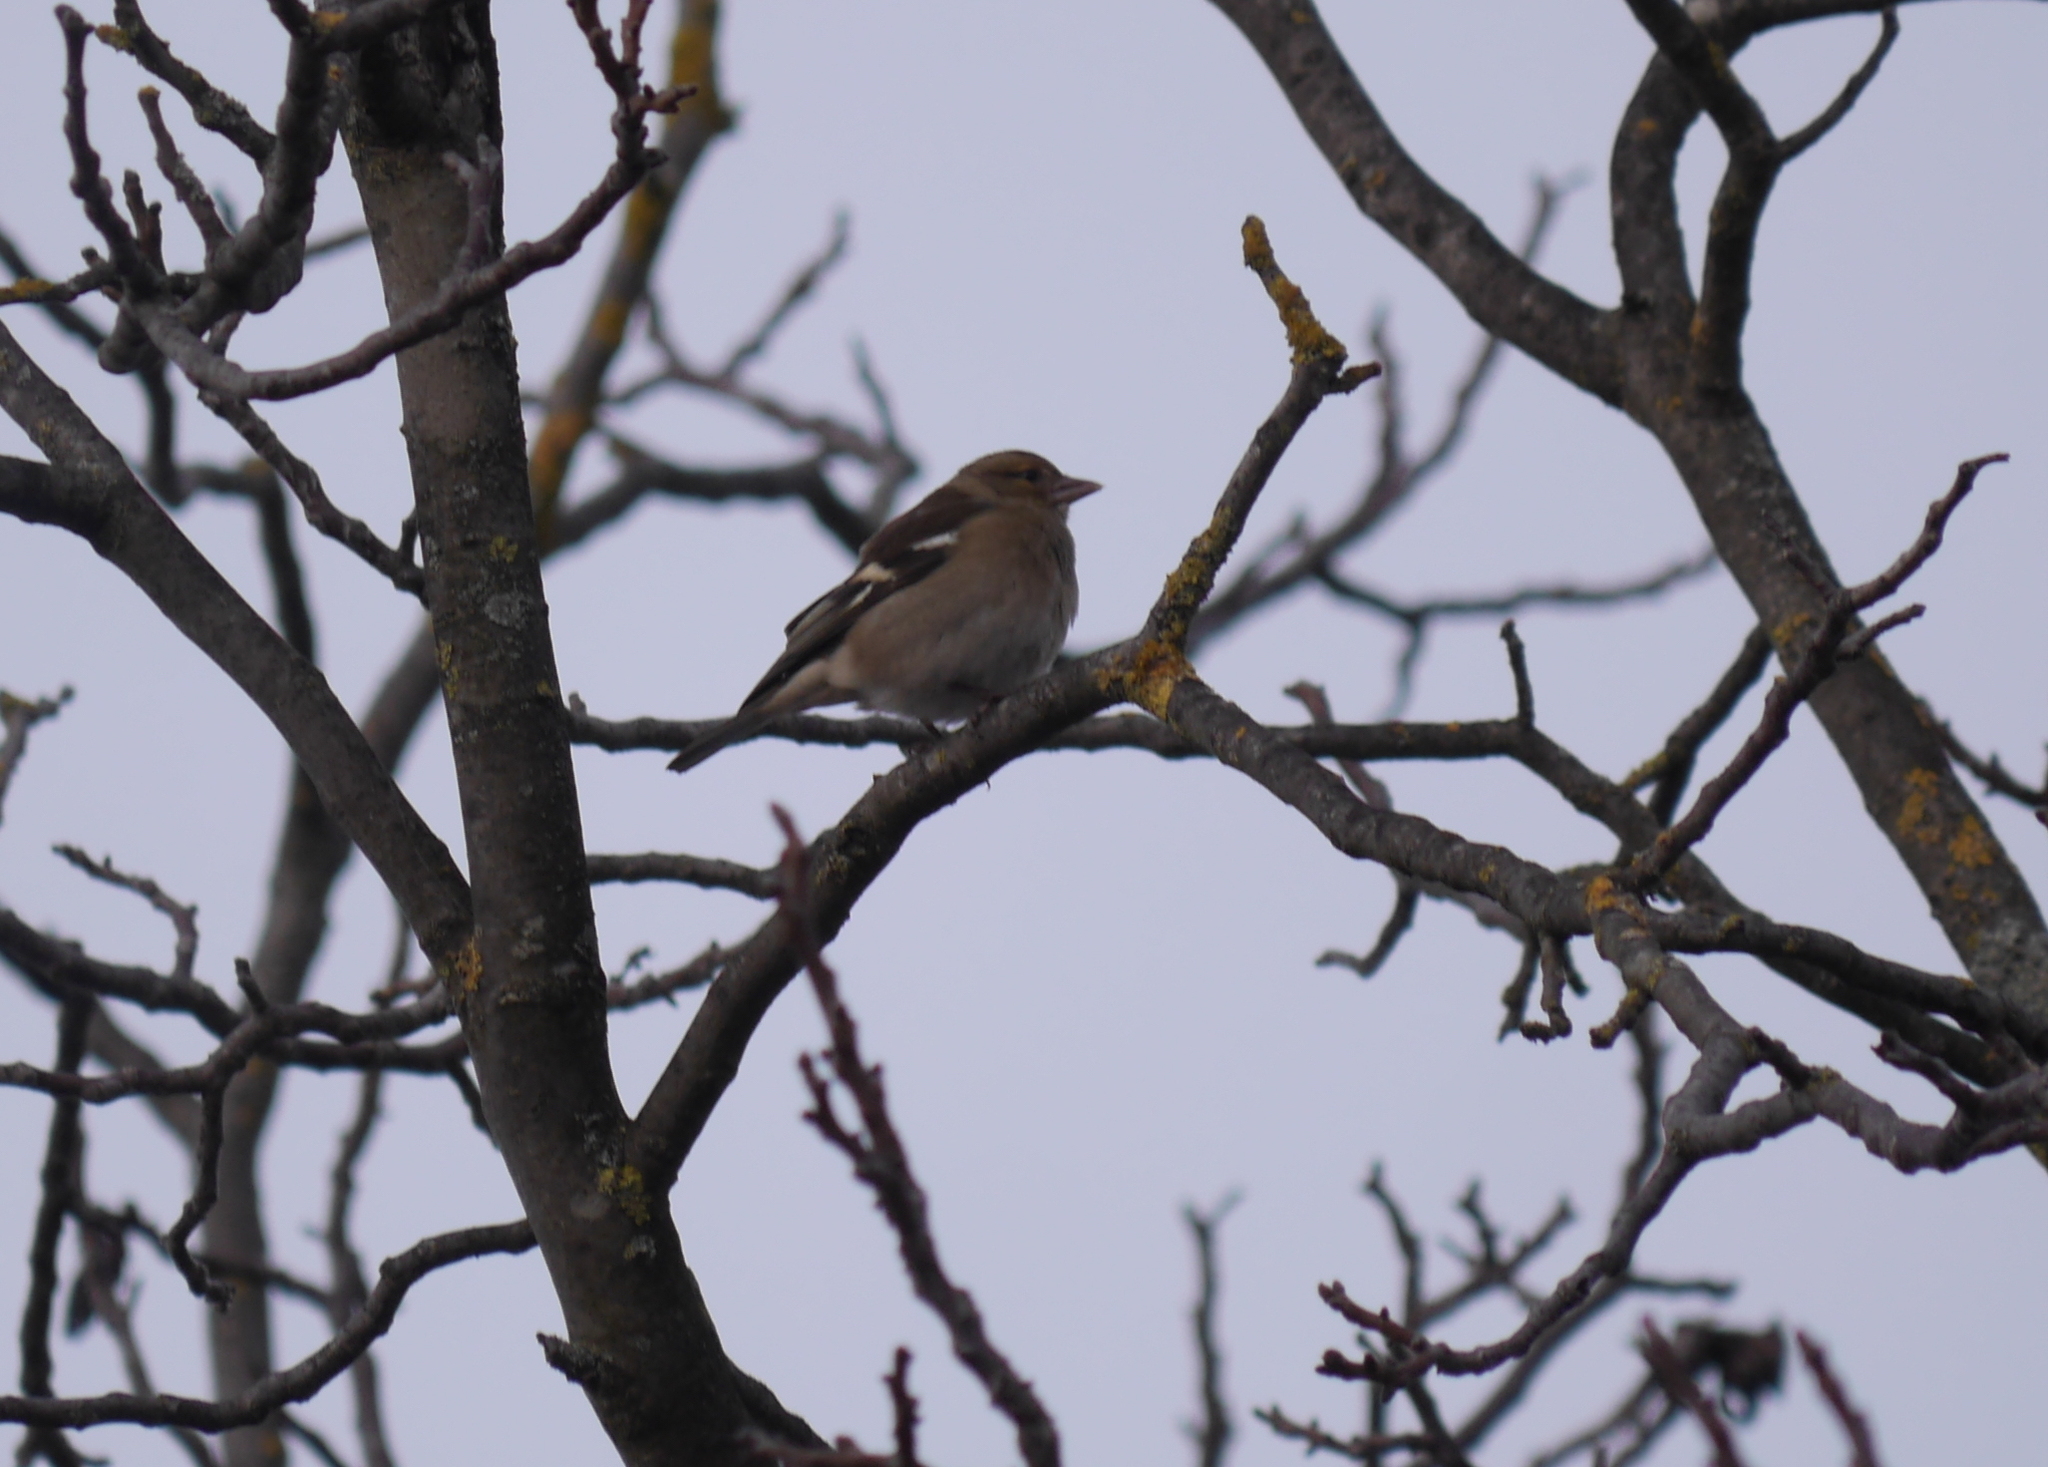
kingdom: Animalia
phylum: Chordata
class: Aves
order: Passeriformes
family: Fringillidae
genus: Fringilla
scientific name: Fringilla coelebs
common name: Common chaffinch
